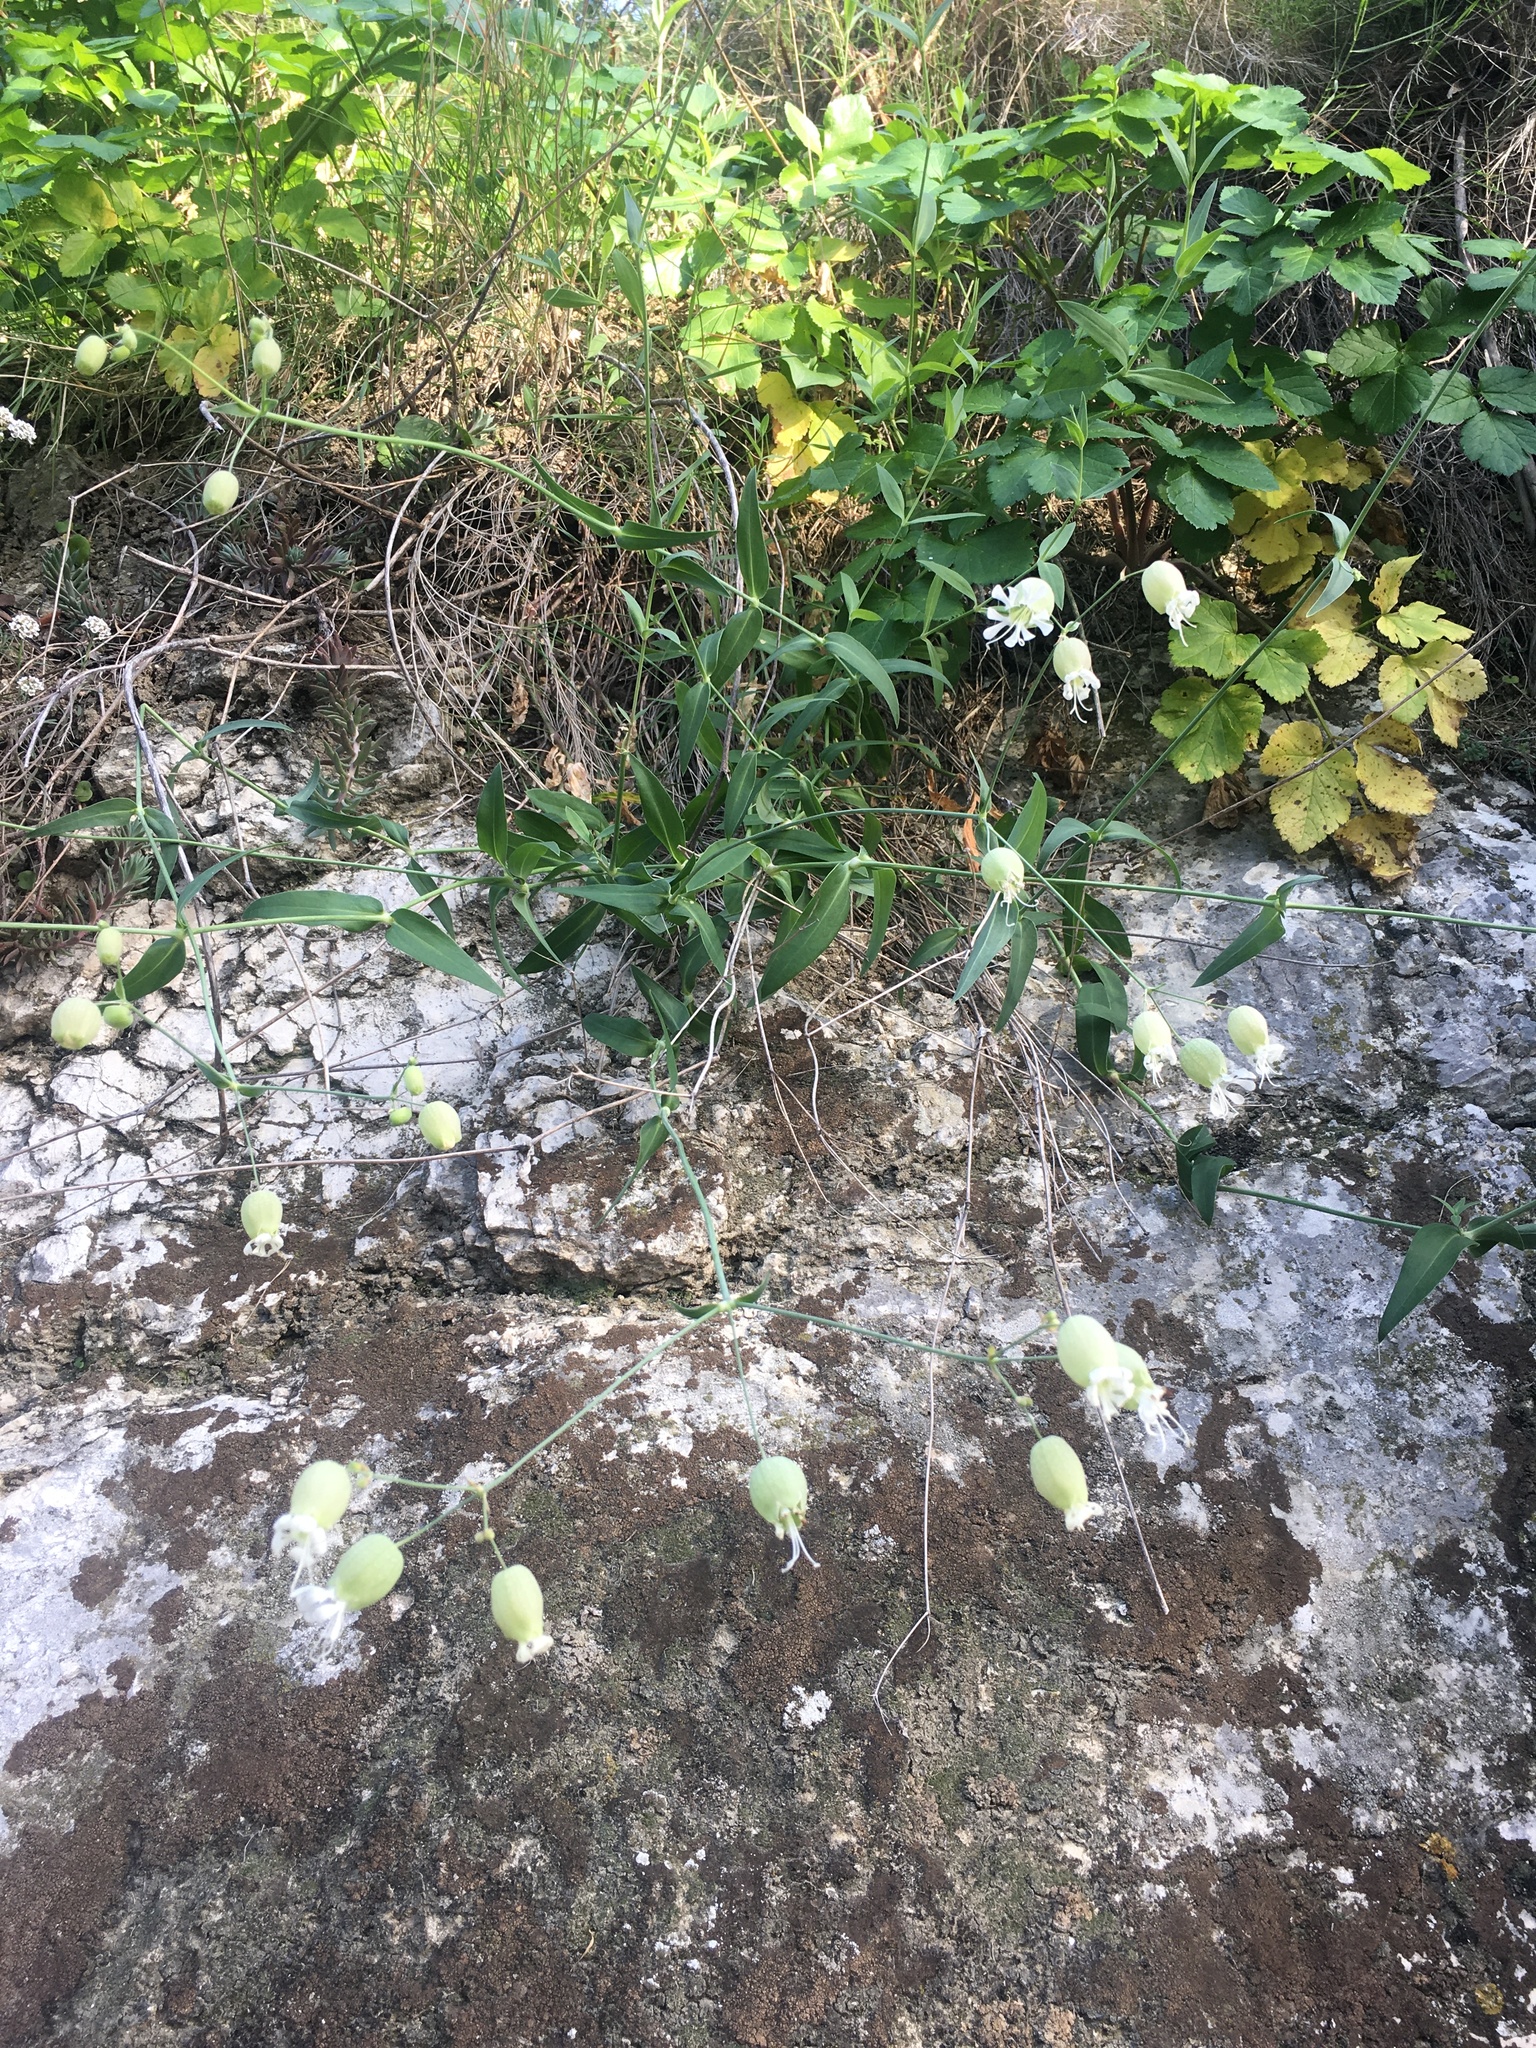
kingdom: Plantae
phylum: Tracheophyta
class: Magnoliopsida
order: Caryophyllales
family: Caryophyllaceae
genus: Silene
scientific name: Silene vulgaris
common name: Bladder campion
